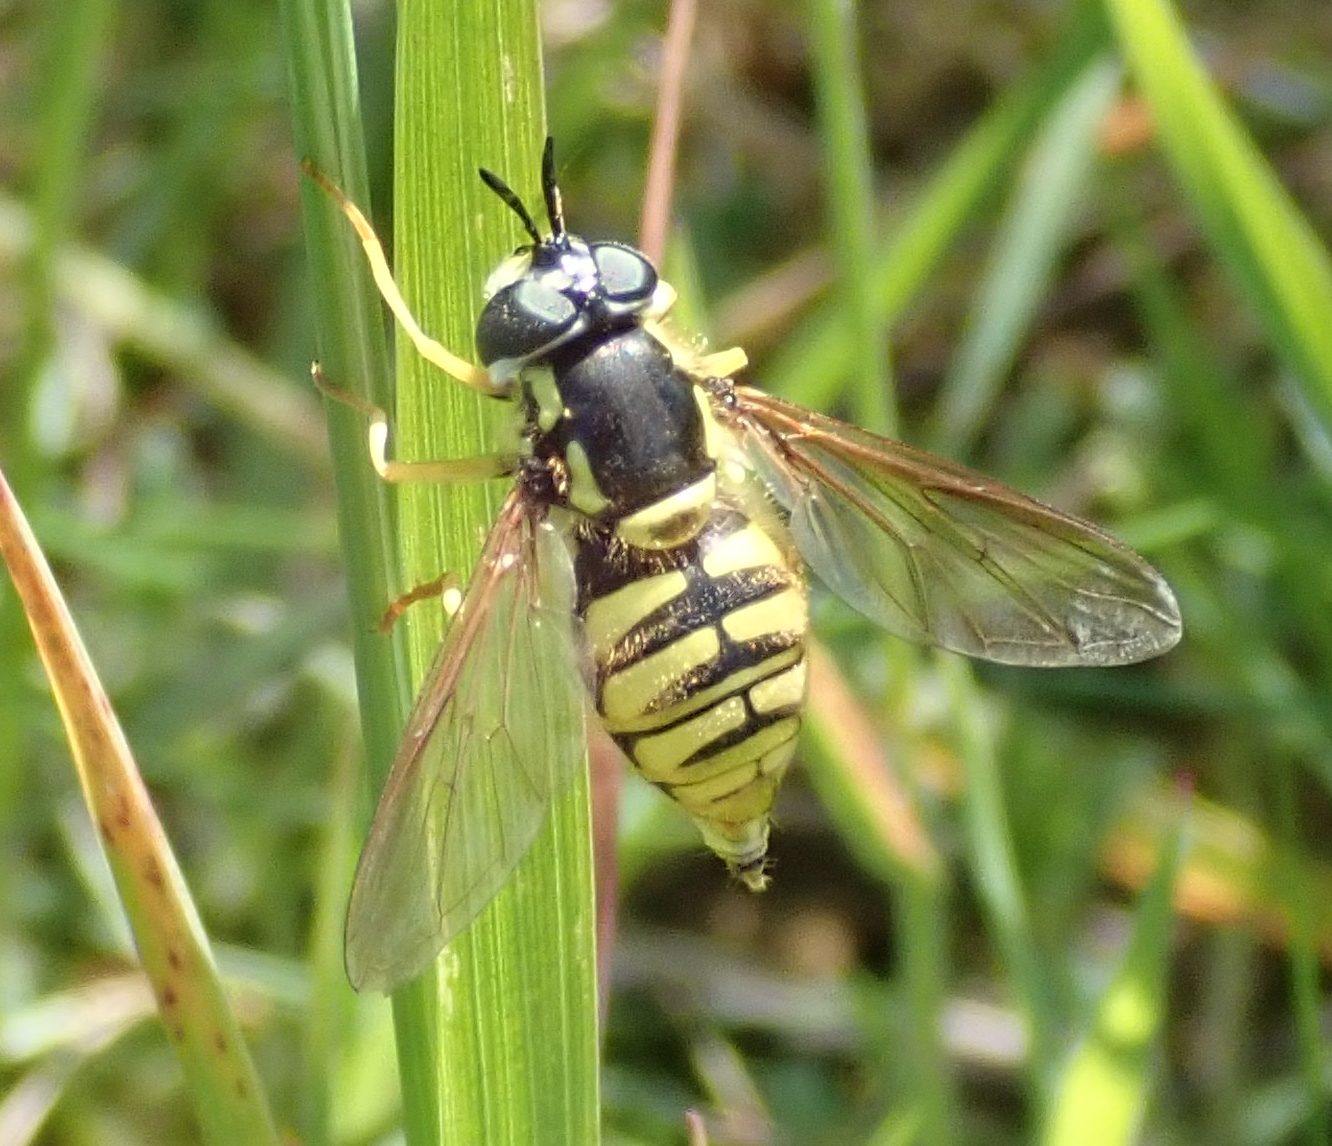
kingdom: Animalia
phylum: Arthropoda
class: Insecta
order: Diptera
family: Syrphidae
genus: Chrysotoxum
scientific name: Chrysotoxum cautum
